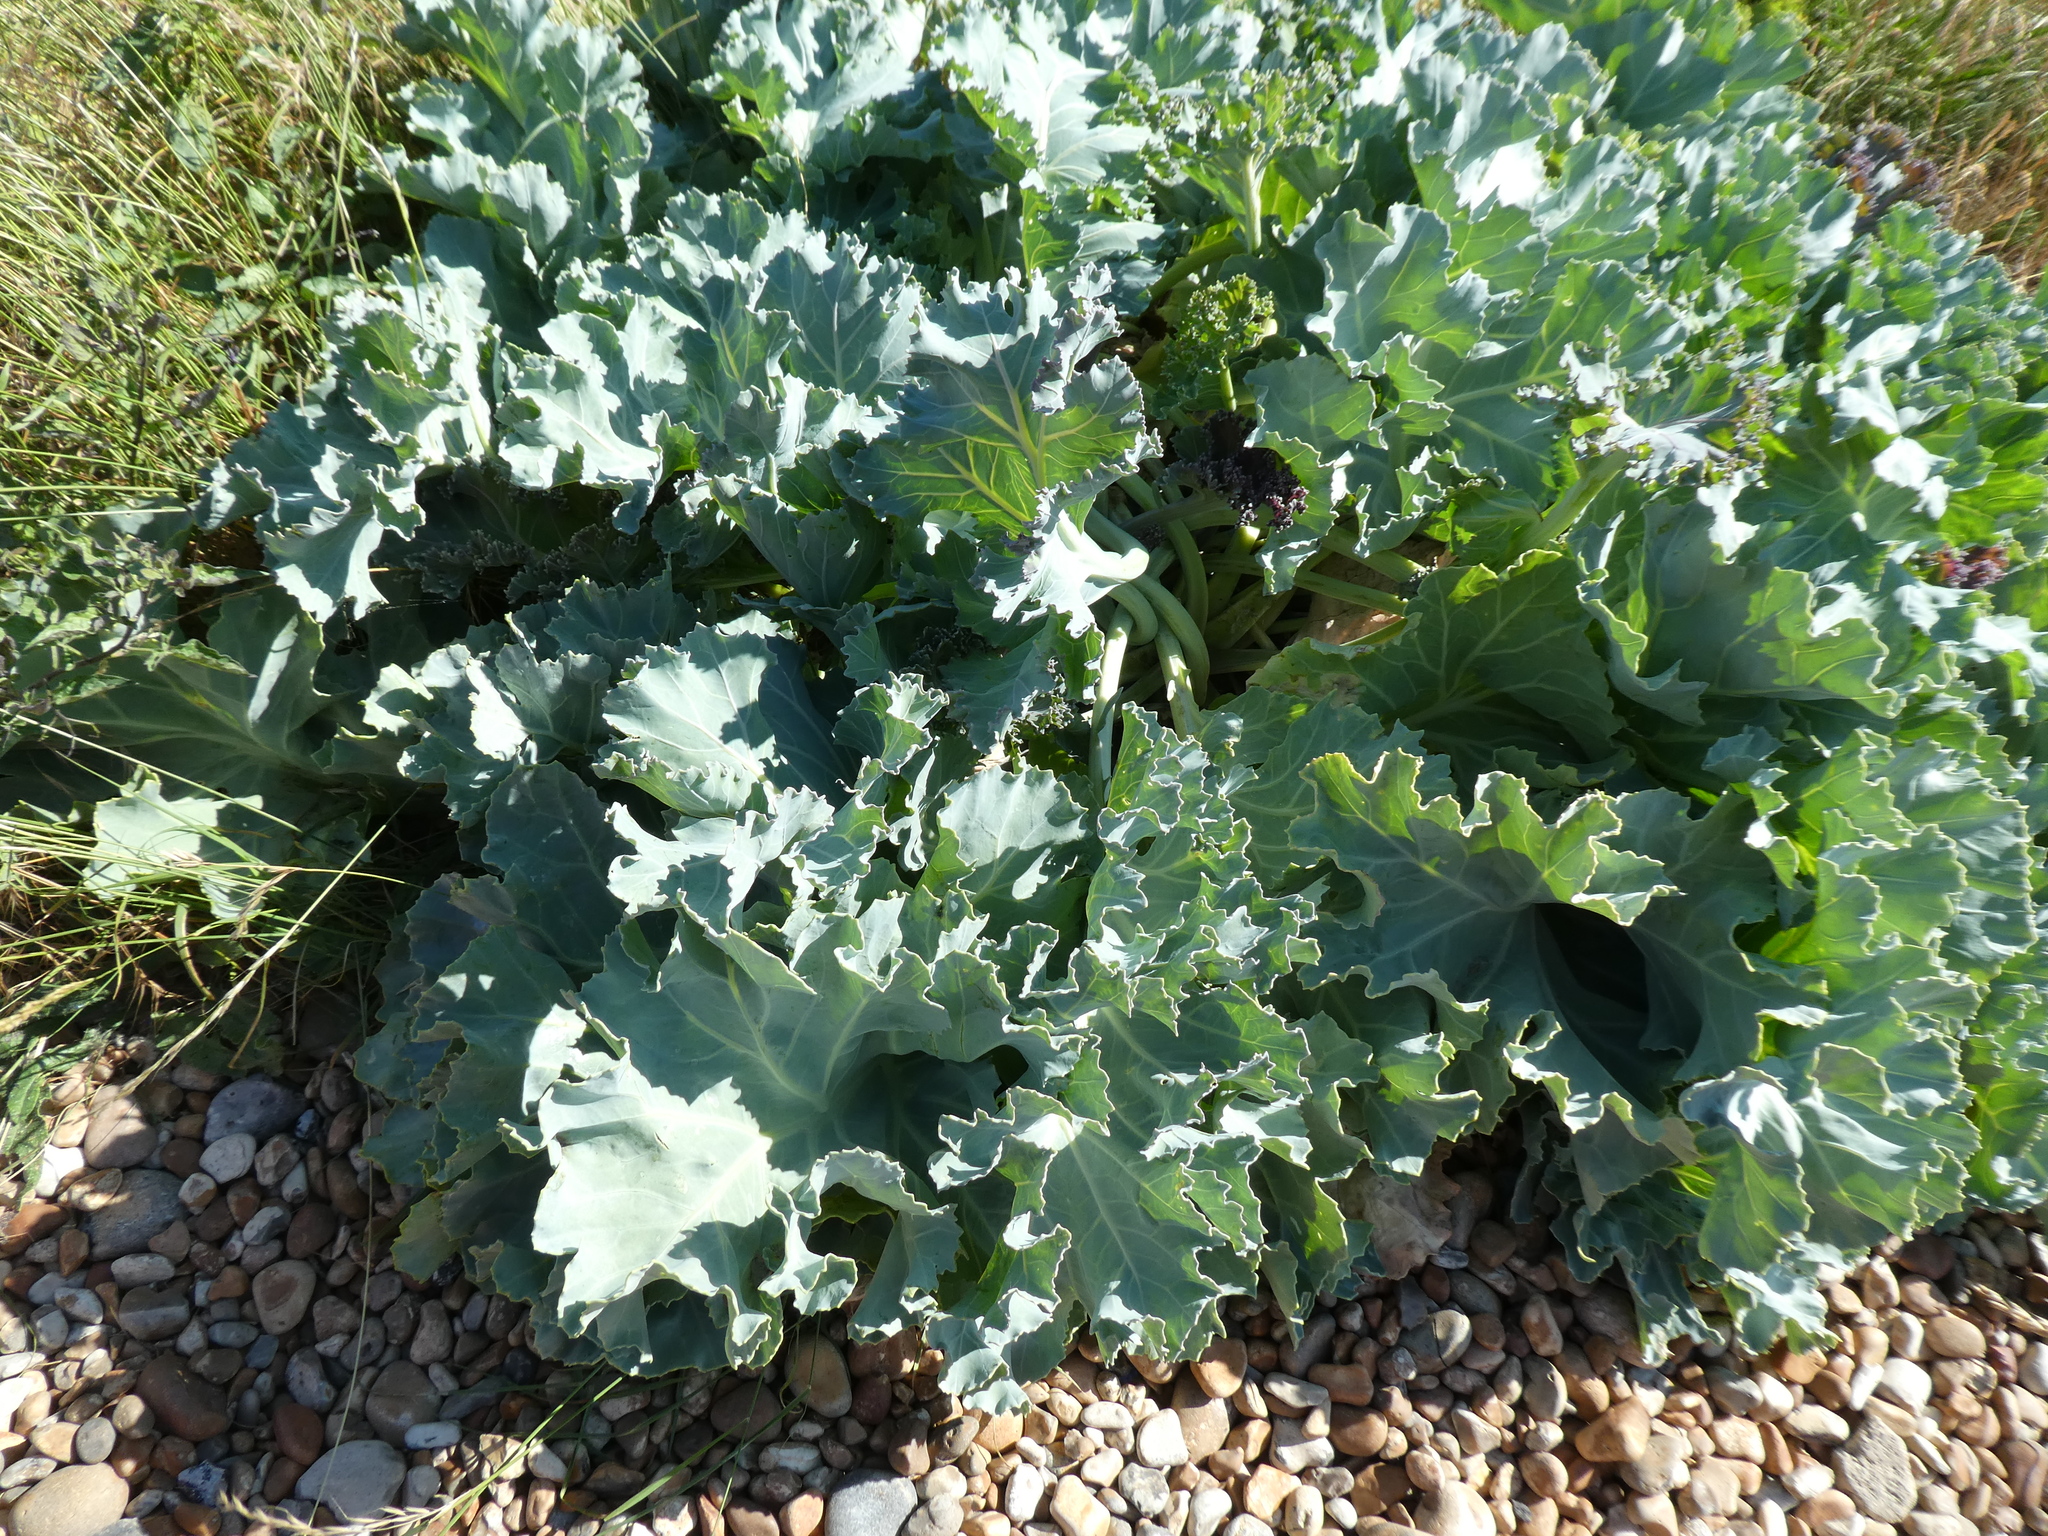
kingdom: Plantae
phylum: Tracheophyta
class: Magnoliopsida
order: Brassicales
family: Brassicaceae
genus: Crambe
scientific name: Crambe maritima
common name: Sea-kale
